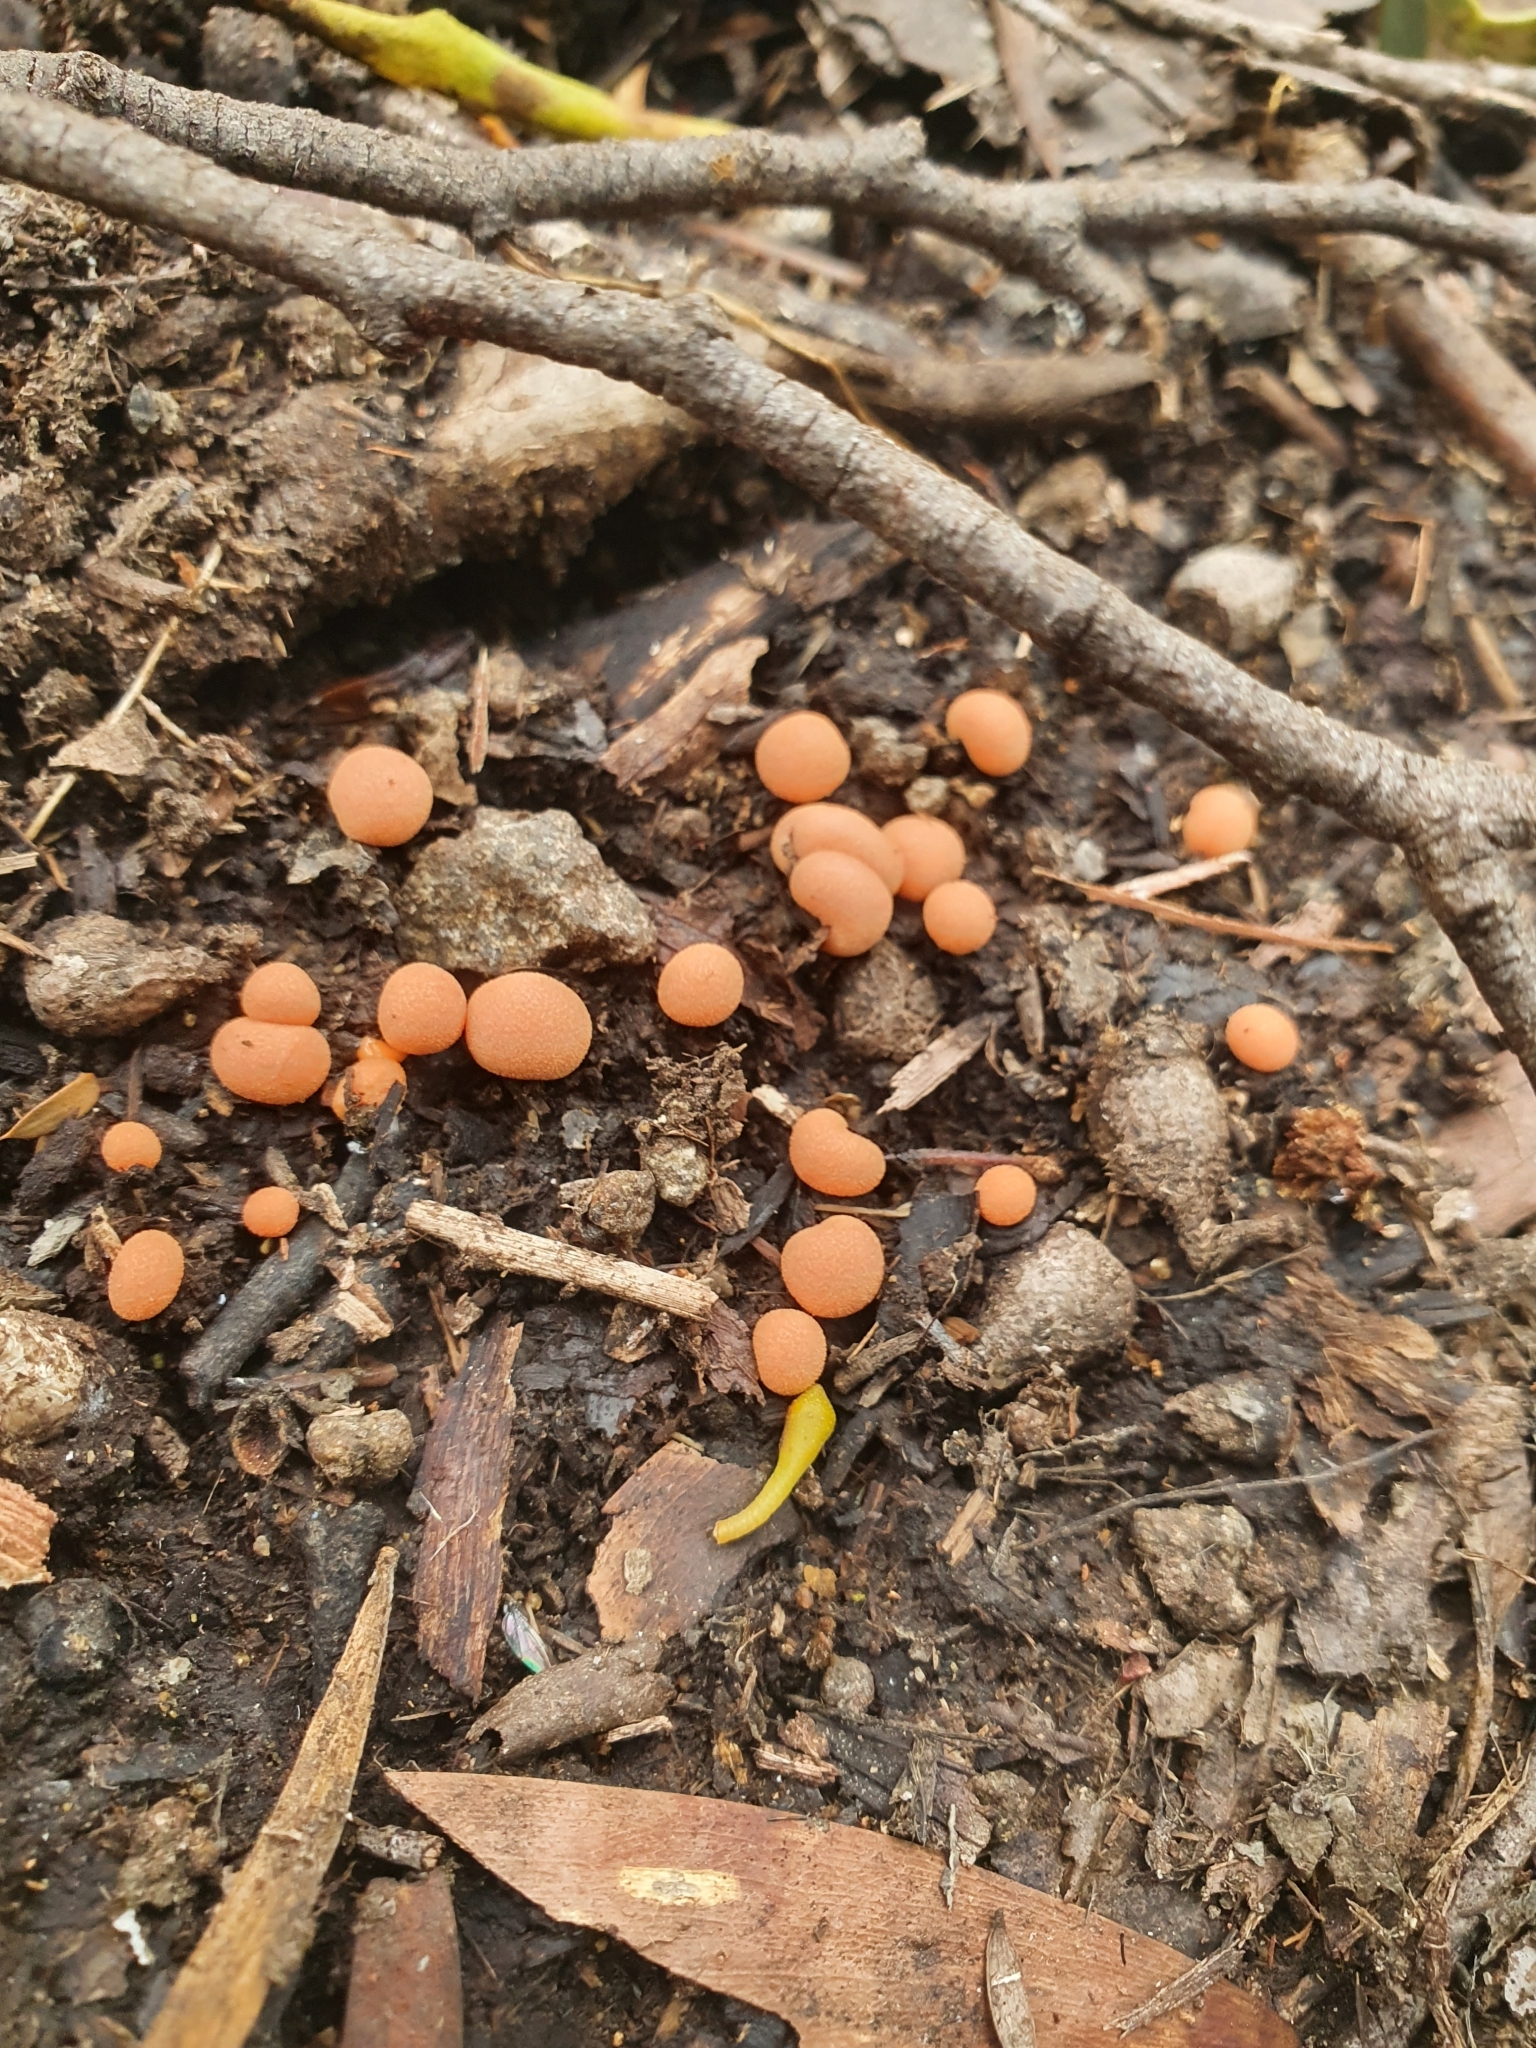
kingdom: Protozoa
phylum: Mycetozoa
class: Myxomycetes
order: Cribrariales
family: Tubiferaceae
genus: Lycogala
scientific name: Lycogala epidendrum
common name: Wolf's milk
